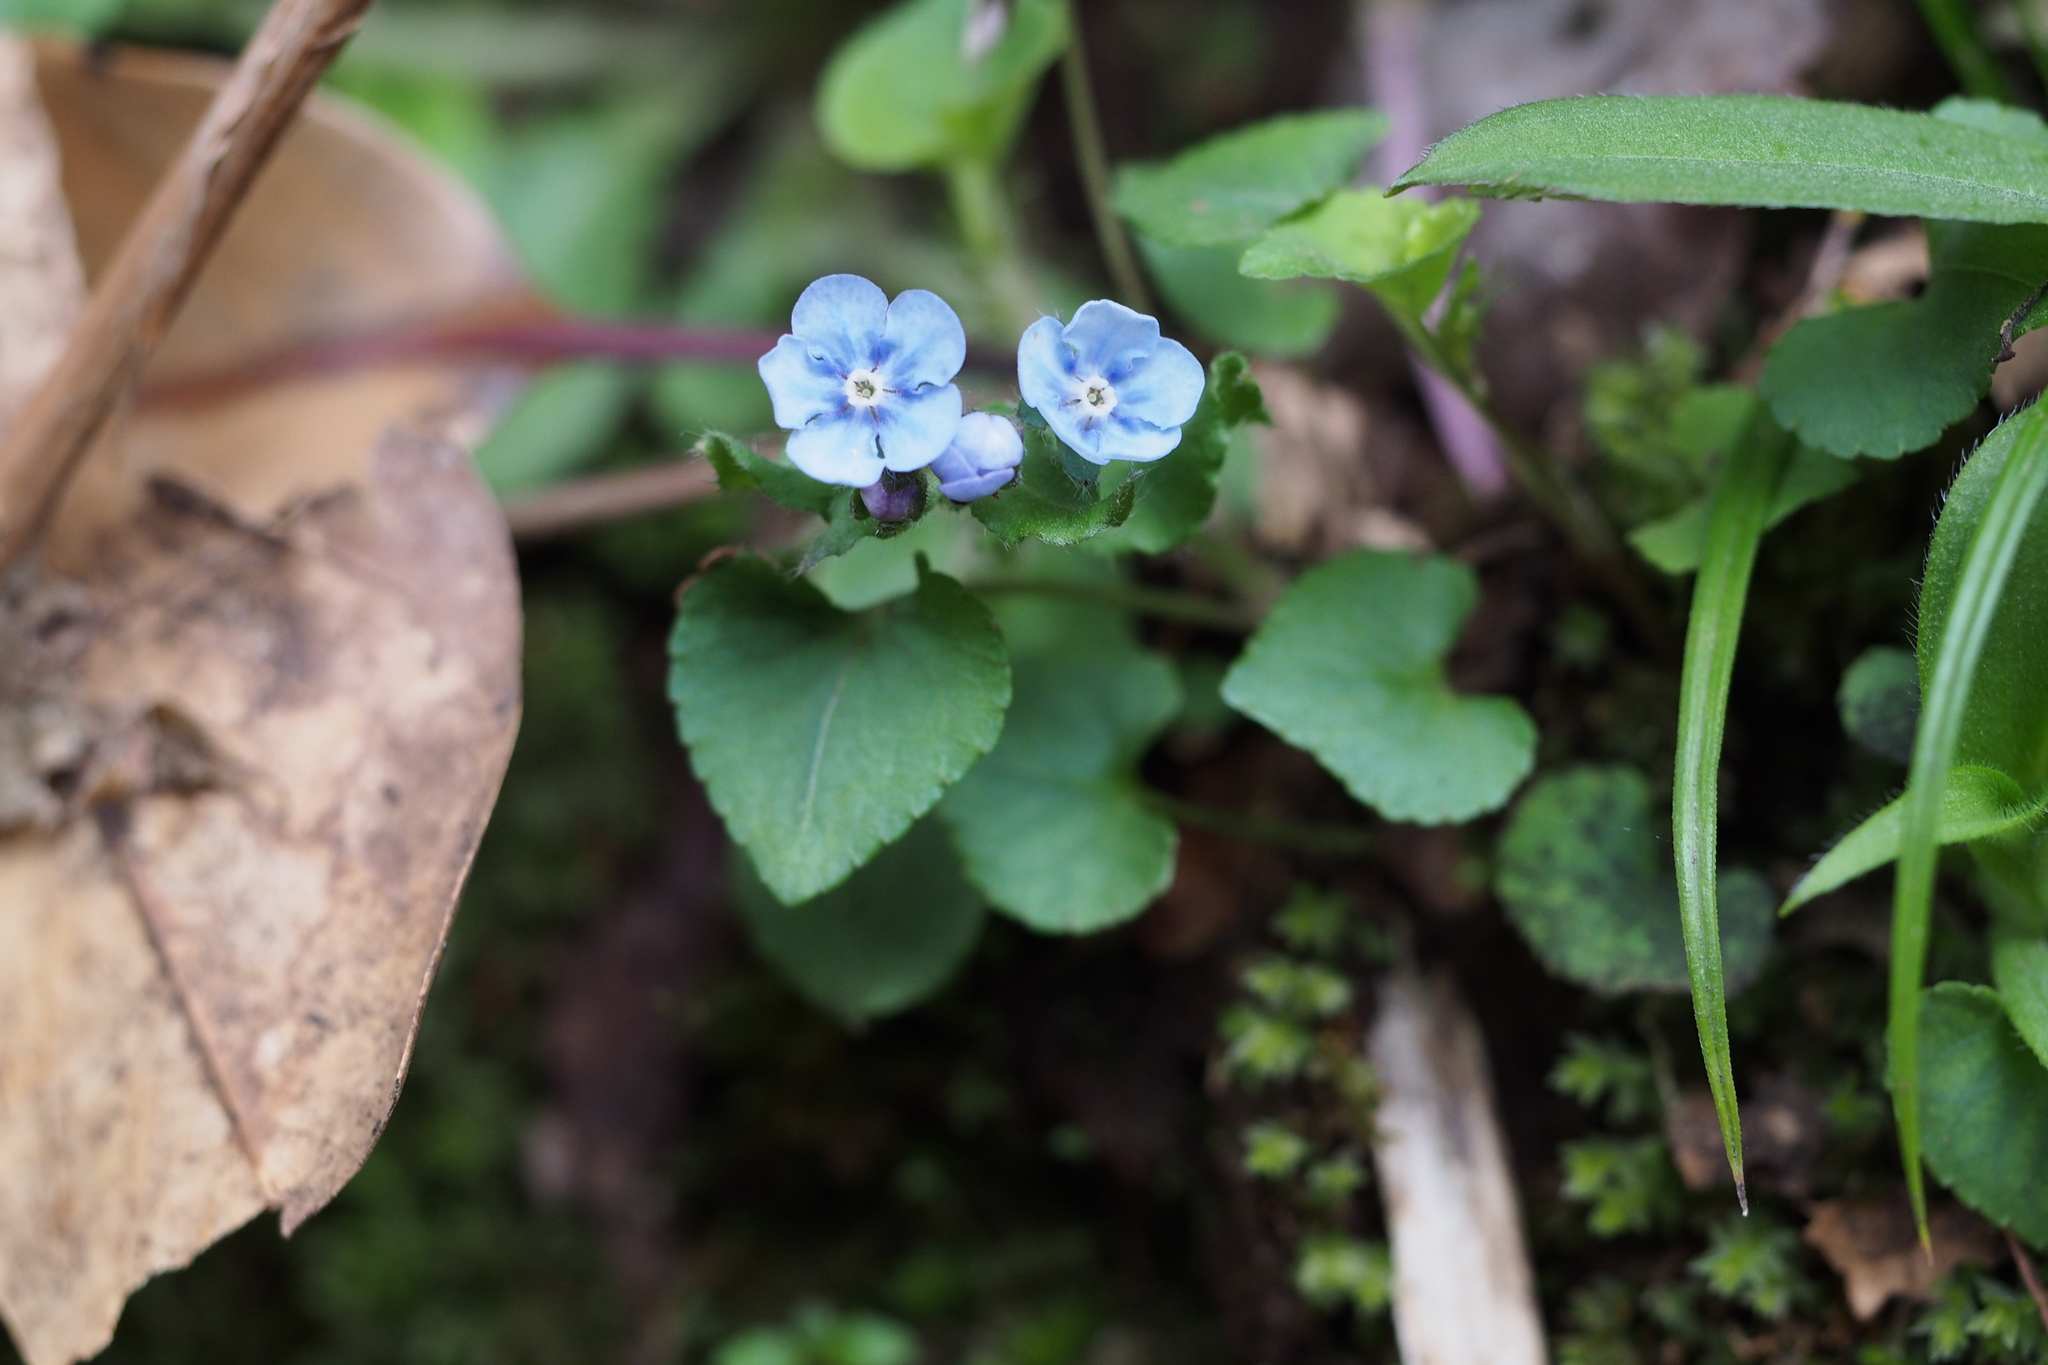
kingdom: Plantae
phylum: Tracheophyta
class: Magnoliopsida
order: Boraginales
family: Boraginaceae
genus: Nihon
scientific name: Nihon japonicum
